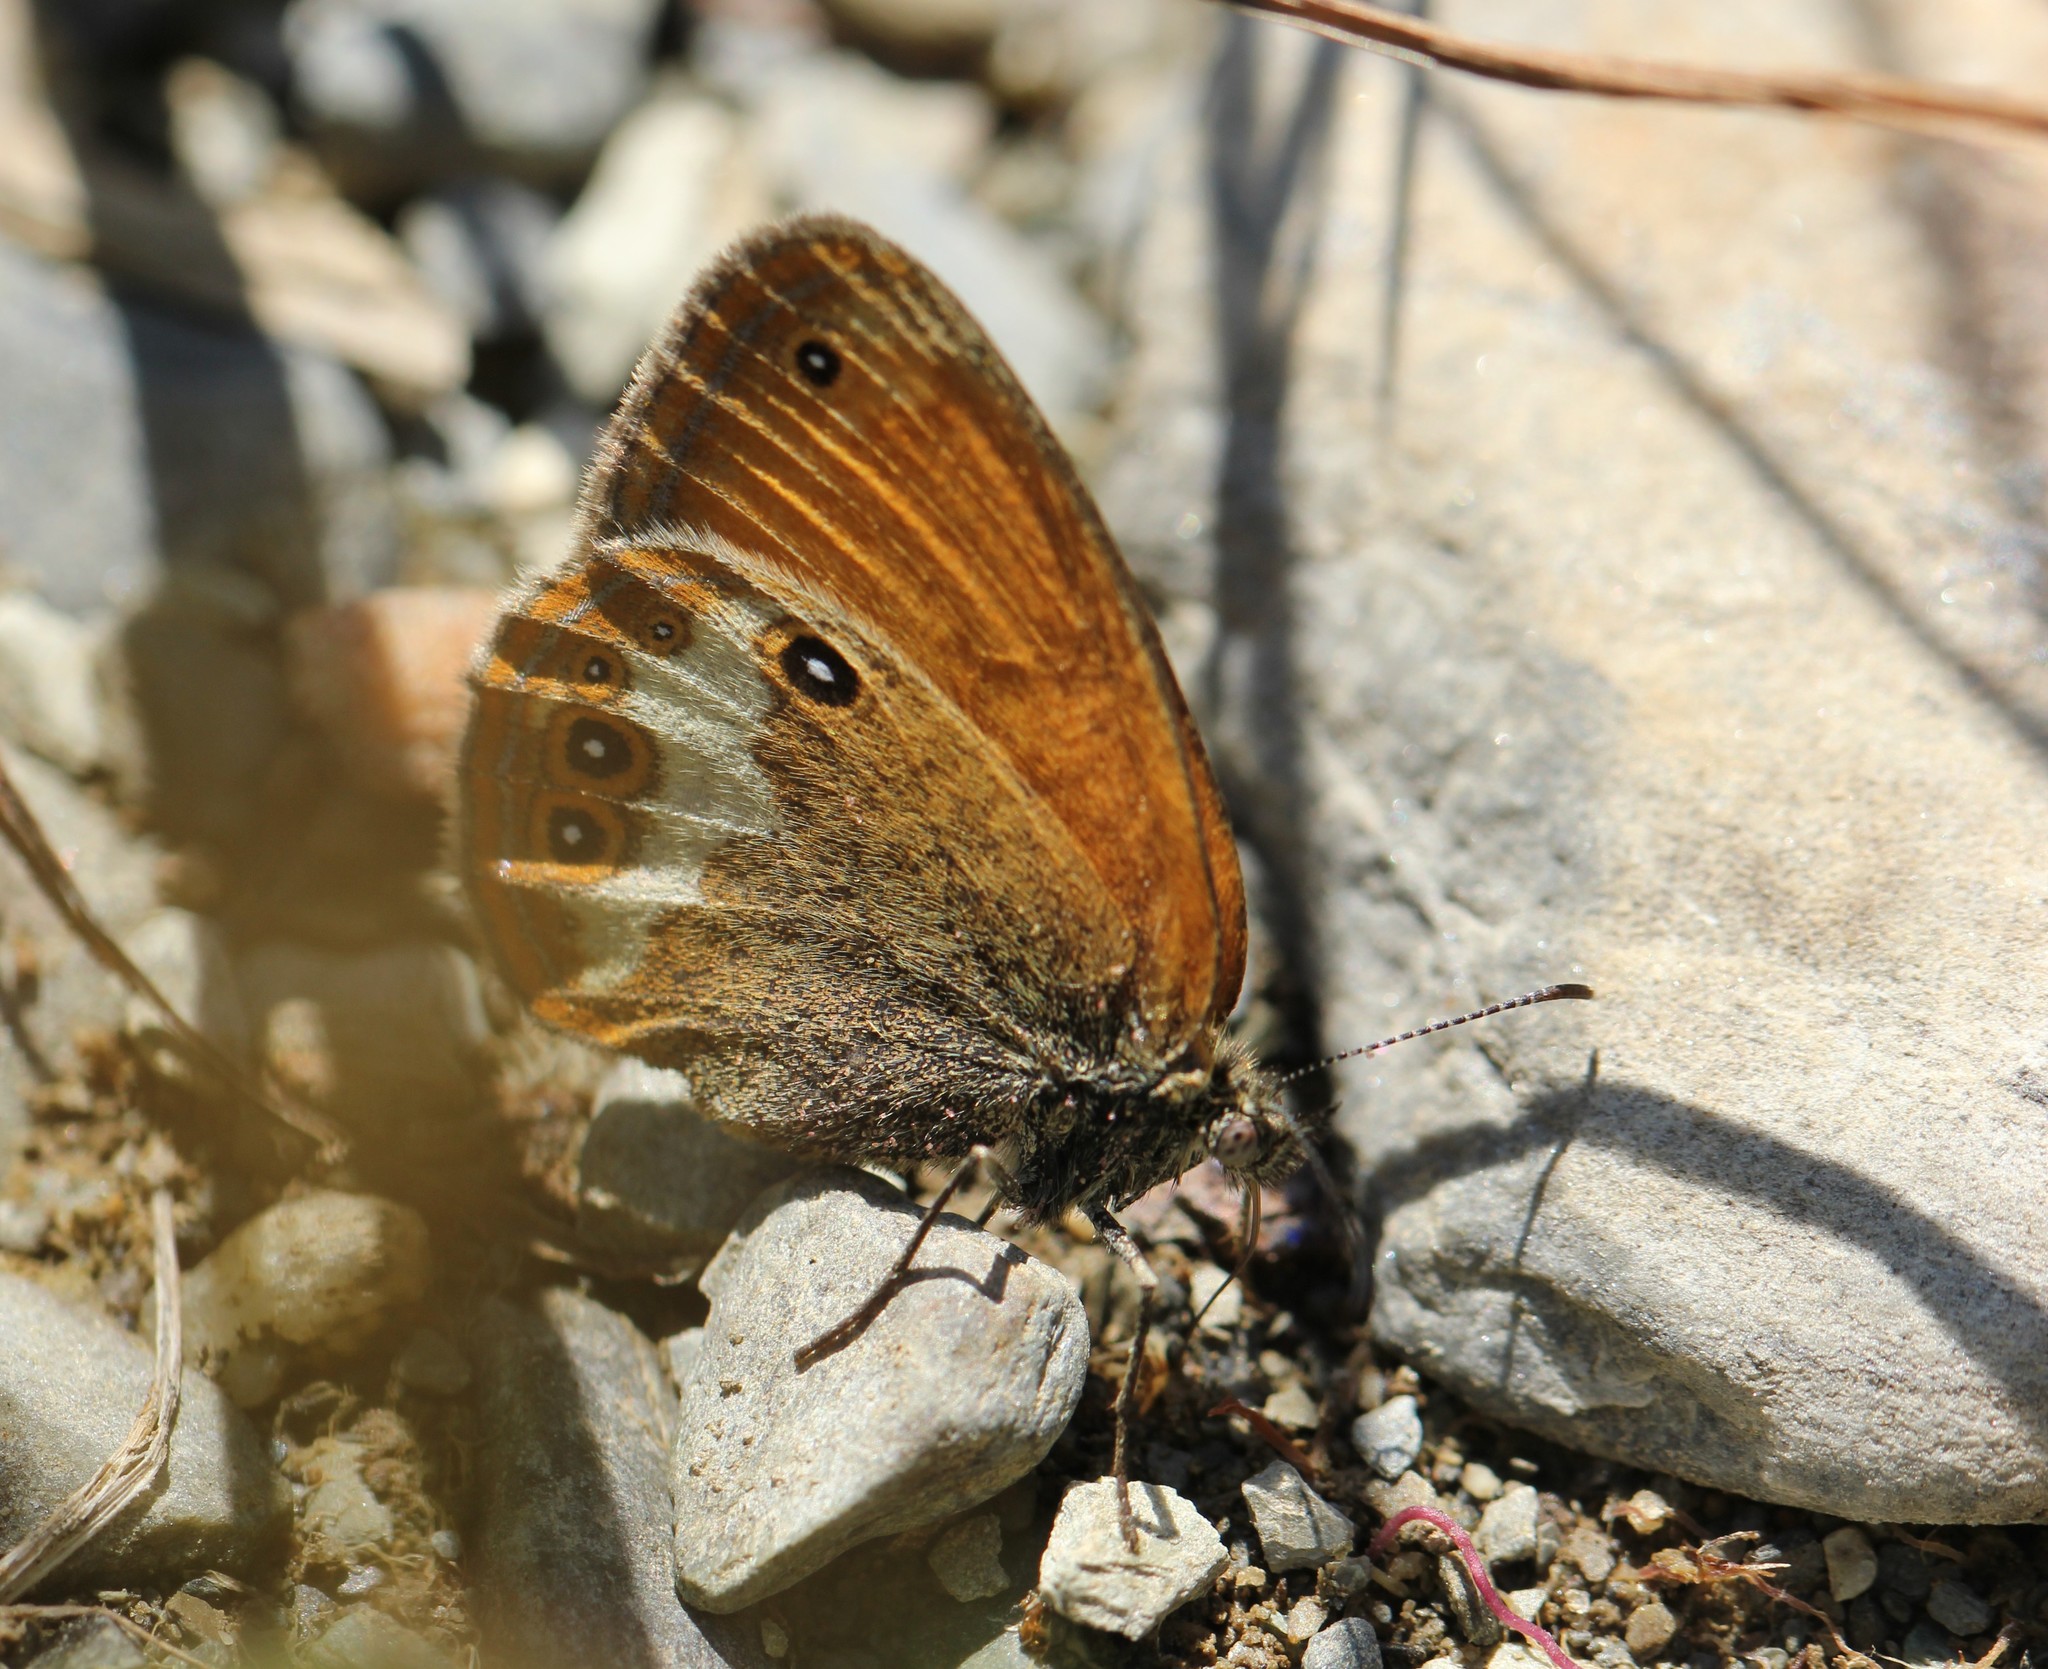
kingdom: Animalia
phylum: Arthropoda
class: Insecta
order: Lepidoptera
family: Nymphalidae
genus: Coenonympha
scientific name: Coenonympha arcania
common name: Pearly heath
